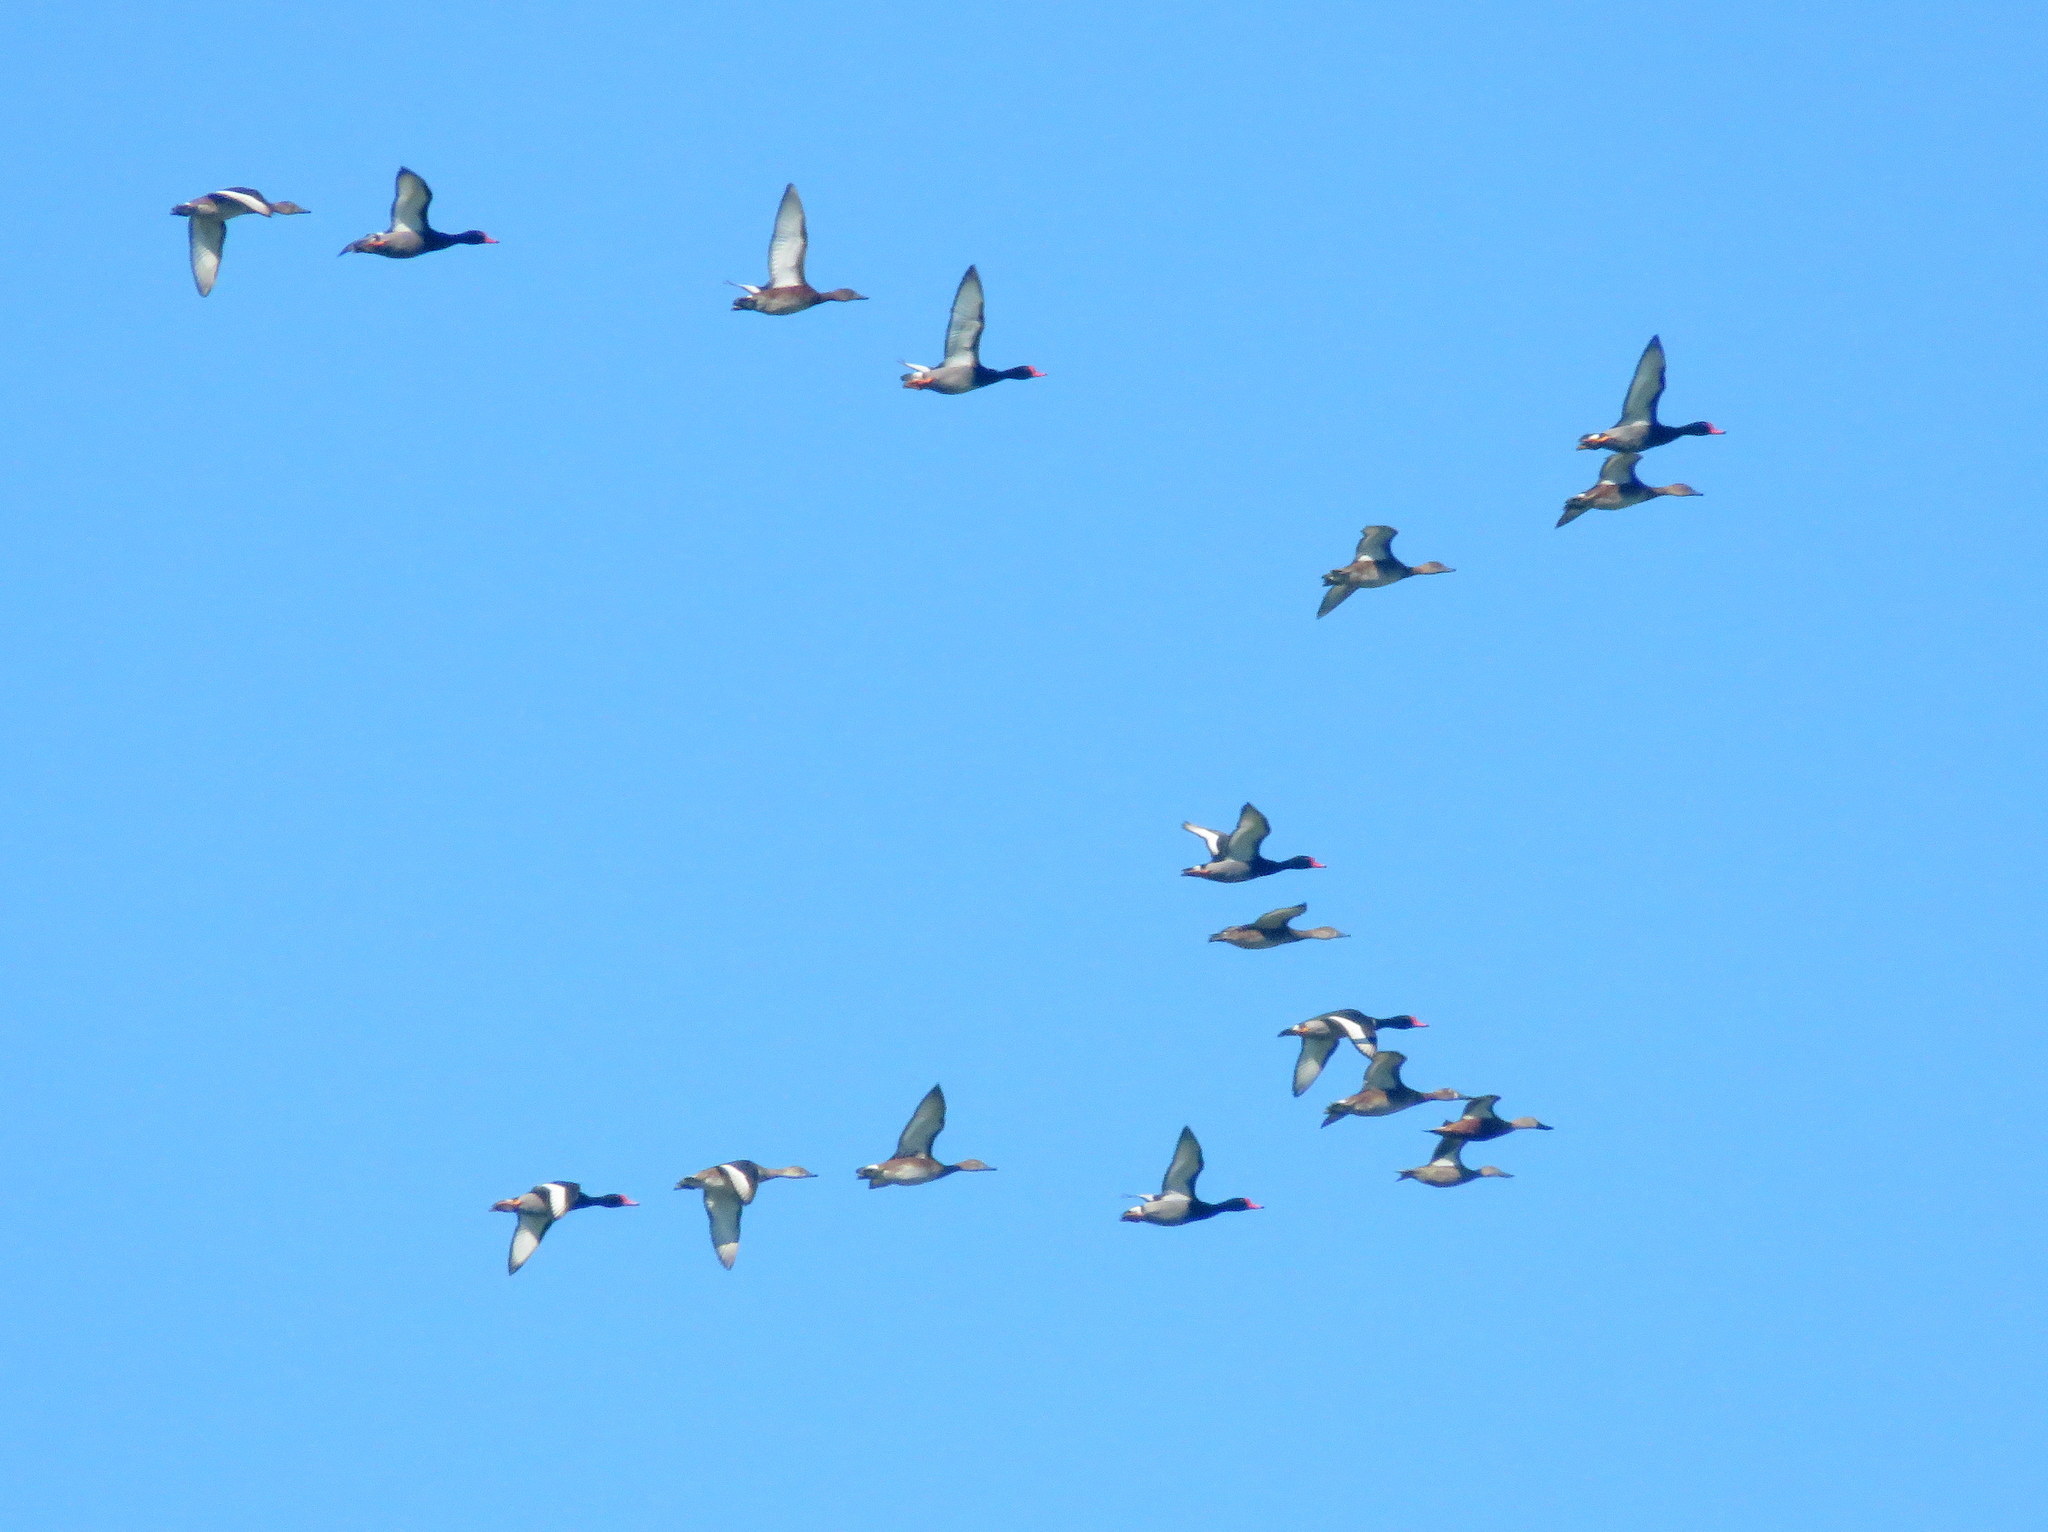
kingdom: Animalia
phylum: Chordata
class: Aves
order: Anseriformes
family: Anatidae
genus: Netta
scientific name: Netta peposaca
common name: Rosy-billed pochard
